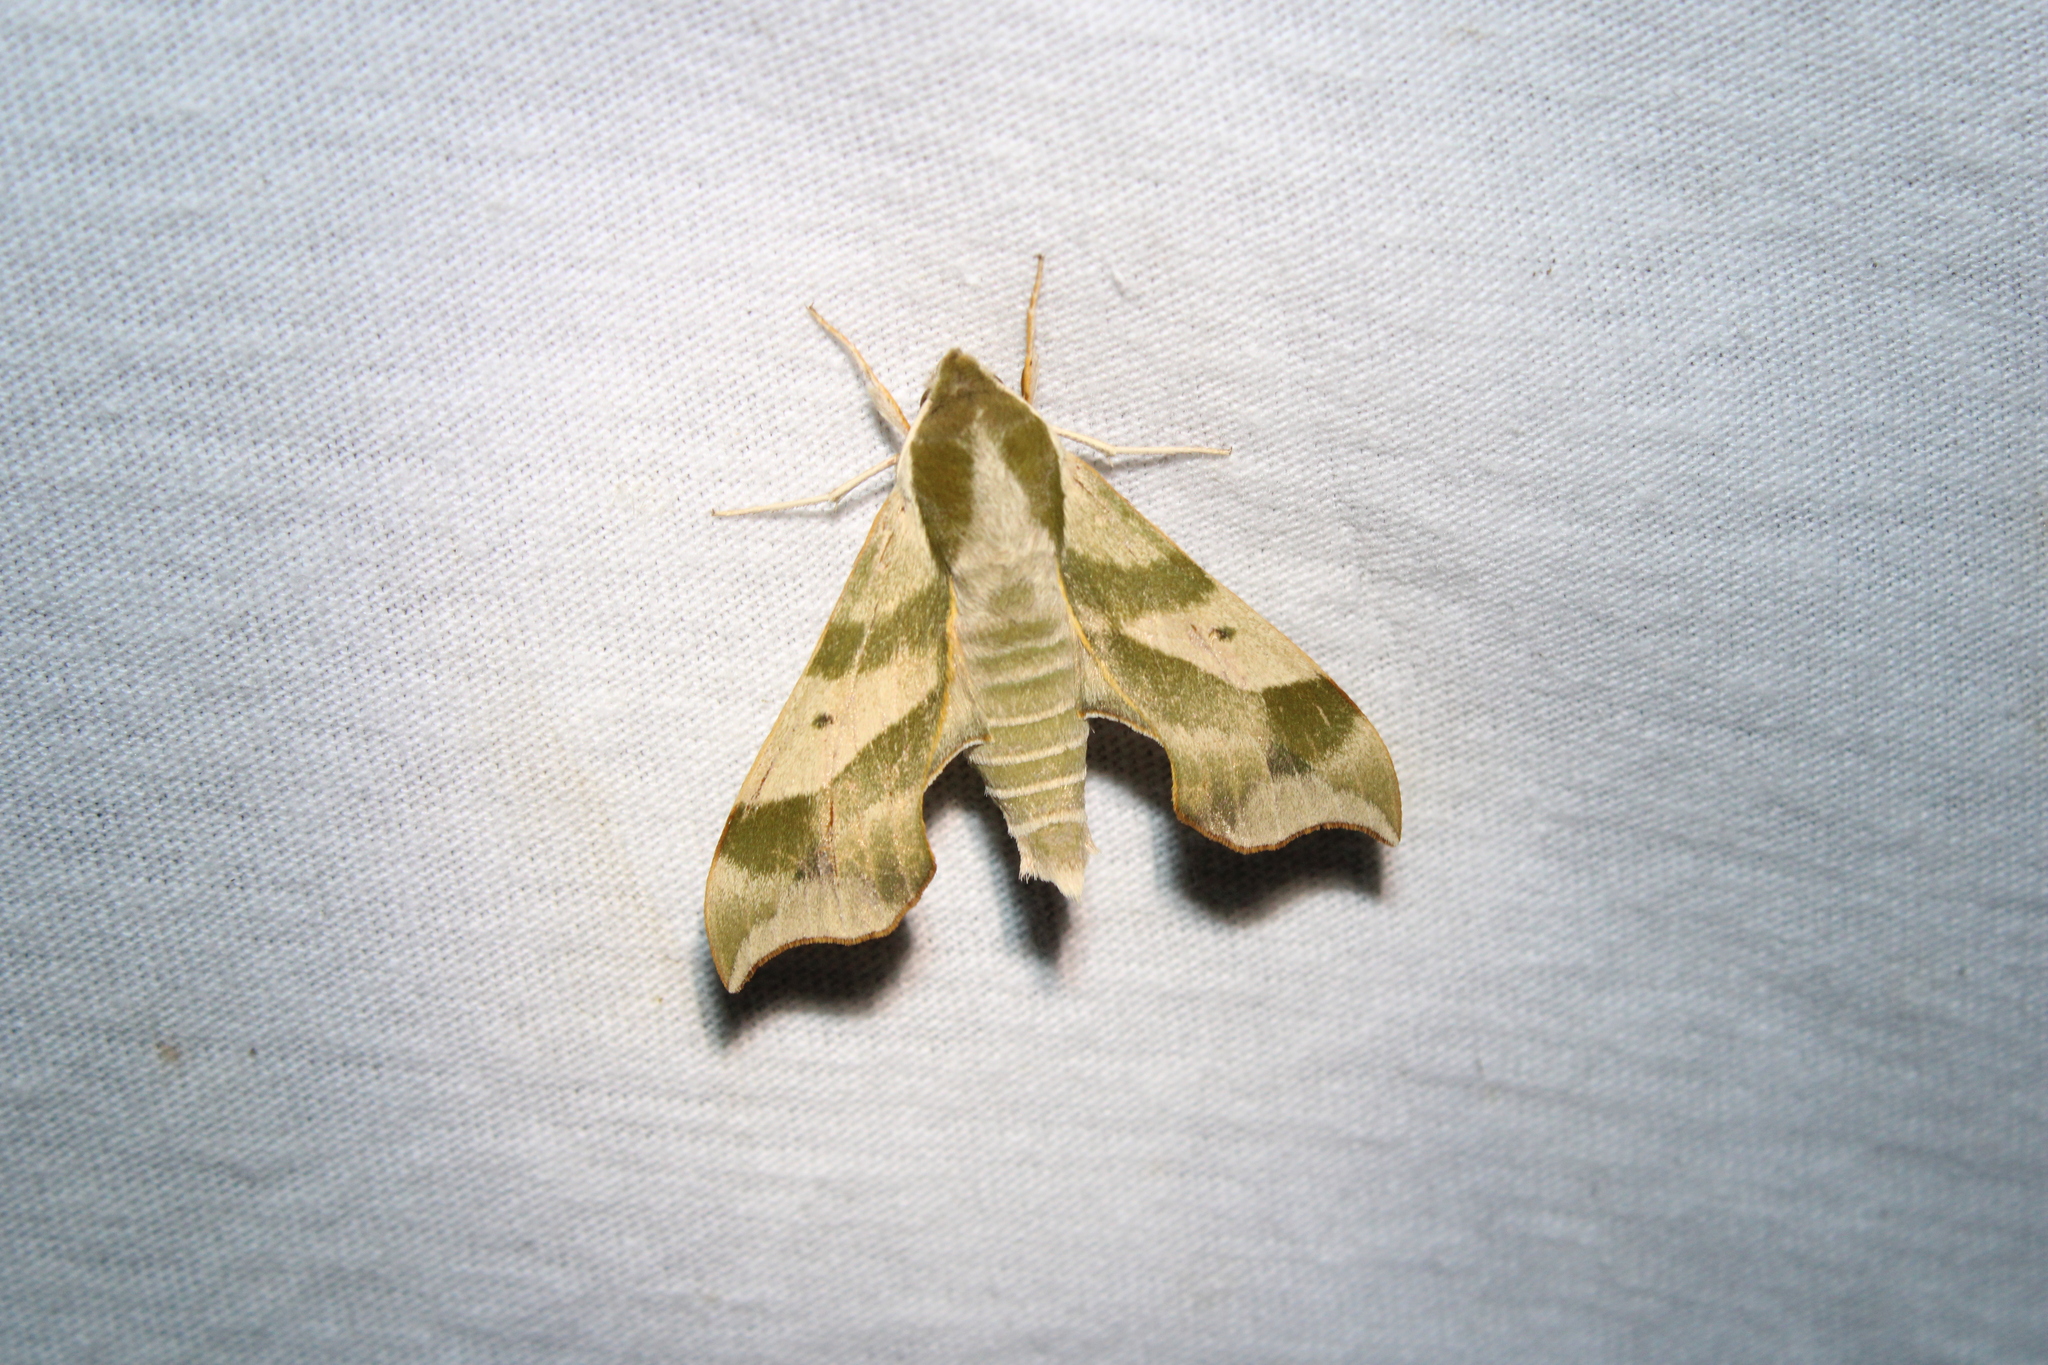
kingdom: Animalia
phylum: Arthropoda
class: Insecta
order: Lepidoptera
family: Sphingidae
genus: Darapsa
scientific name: Darapsa myron
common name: Hog sphinx
